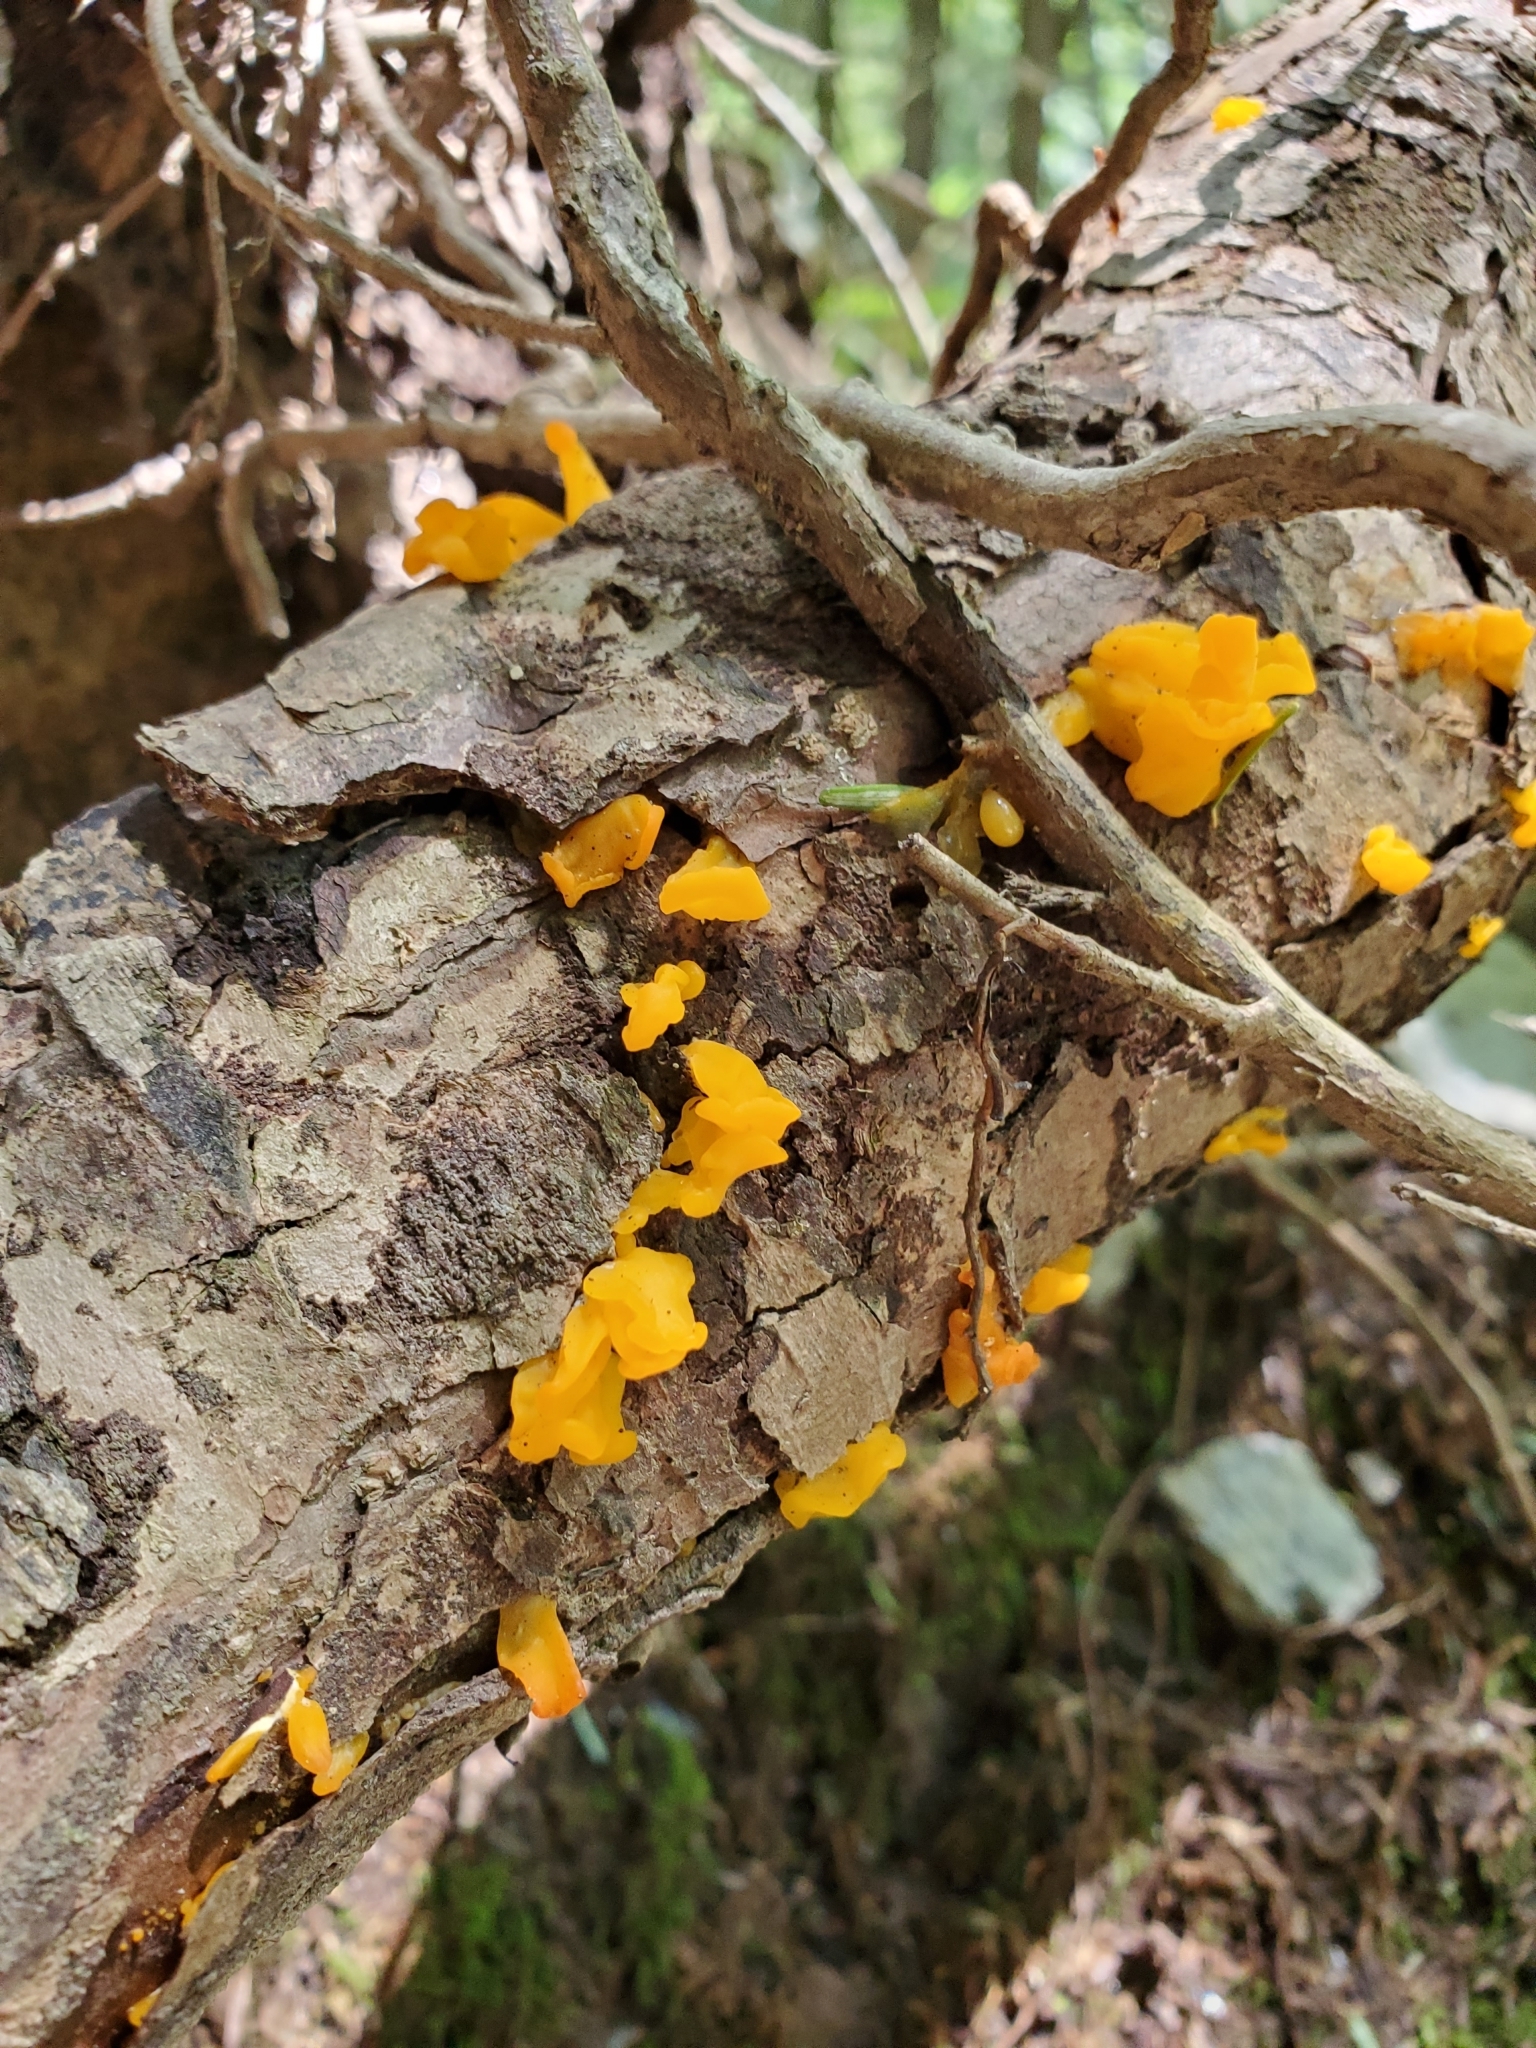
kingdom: Fungi
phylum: Basidiomycota
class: Tremellomycetes
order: Tremellales
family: Tremellaceae
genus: Tremella
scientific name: Tremella mesenterica
